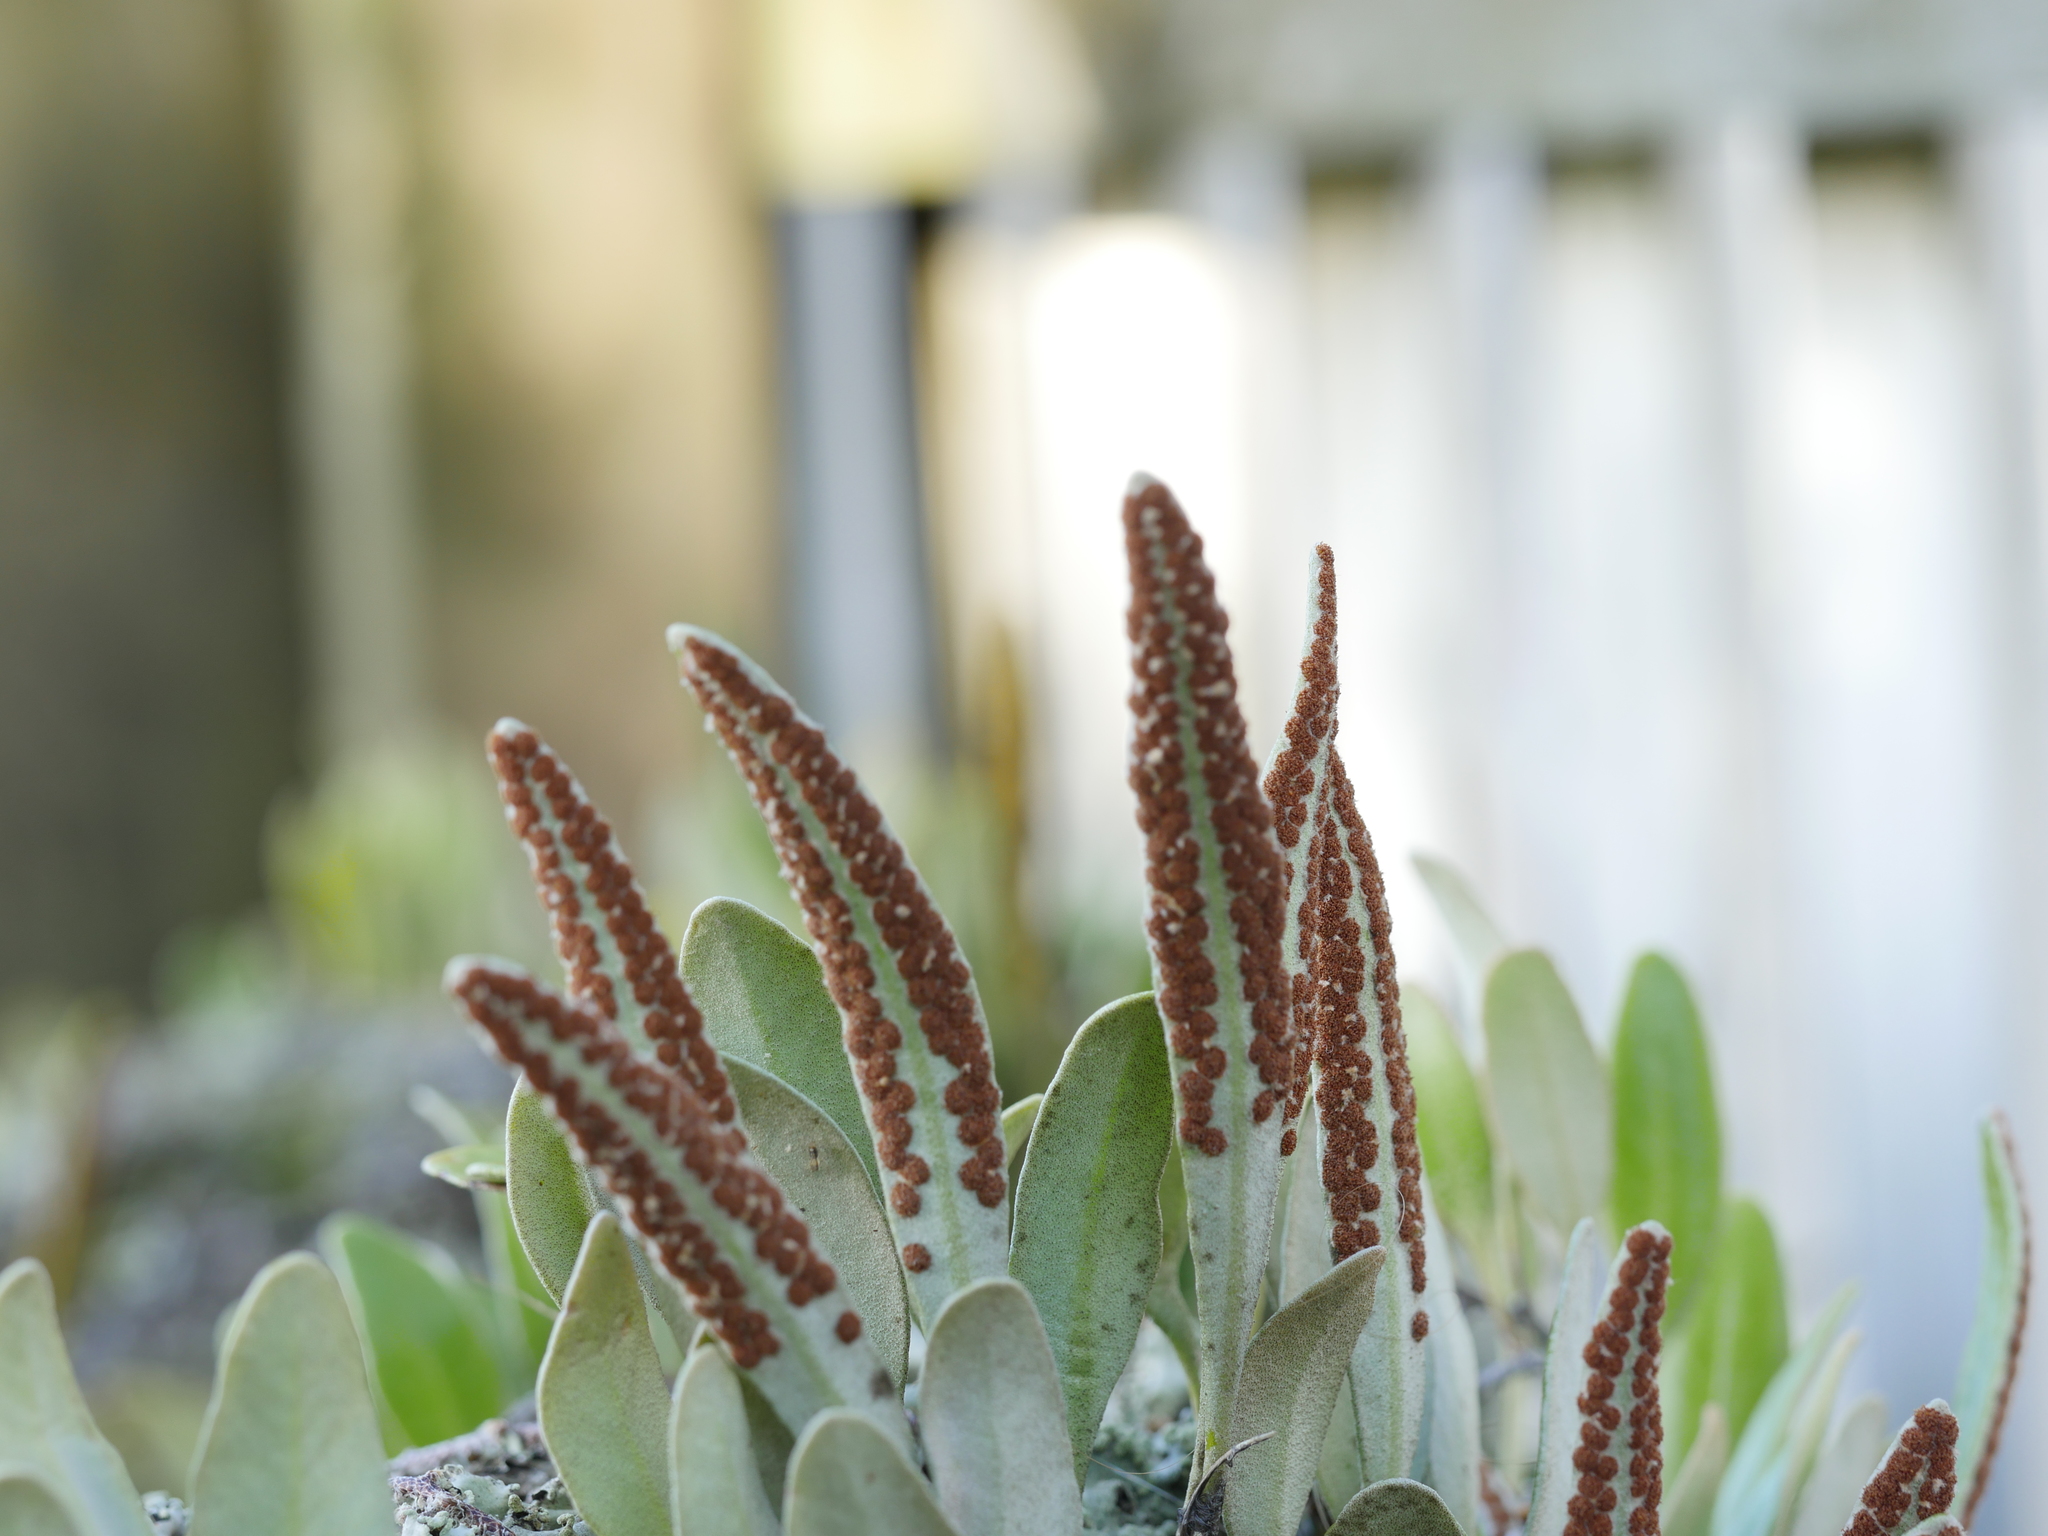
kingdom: Plantae
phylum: Tracheophyta
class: Polypodiopsida
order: Polypodiales
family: Polypodiaceae
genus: Pyrrosia
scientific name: Pyrrosia eleagnifolia
